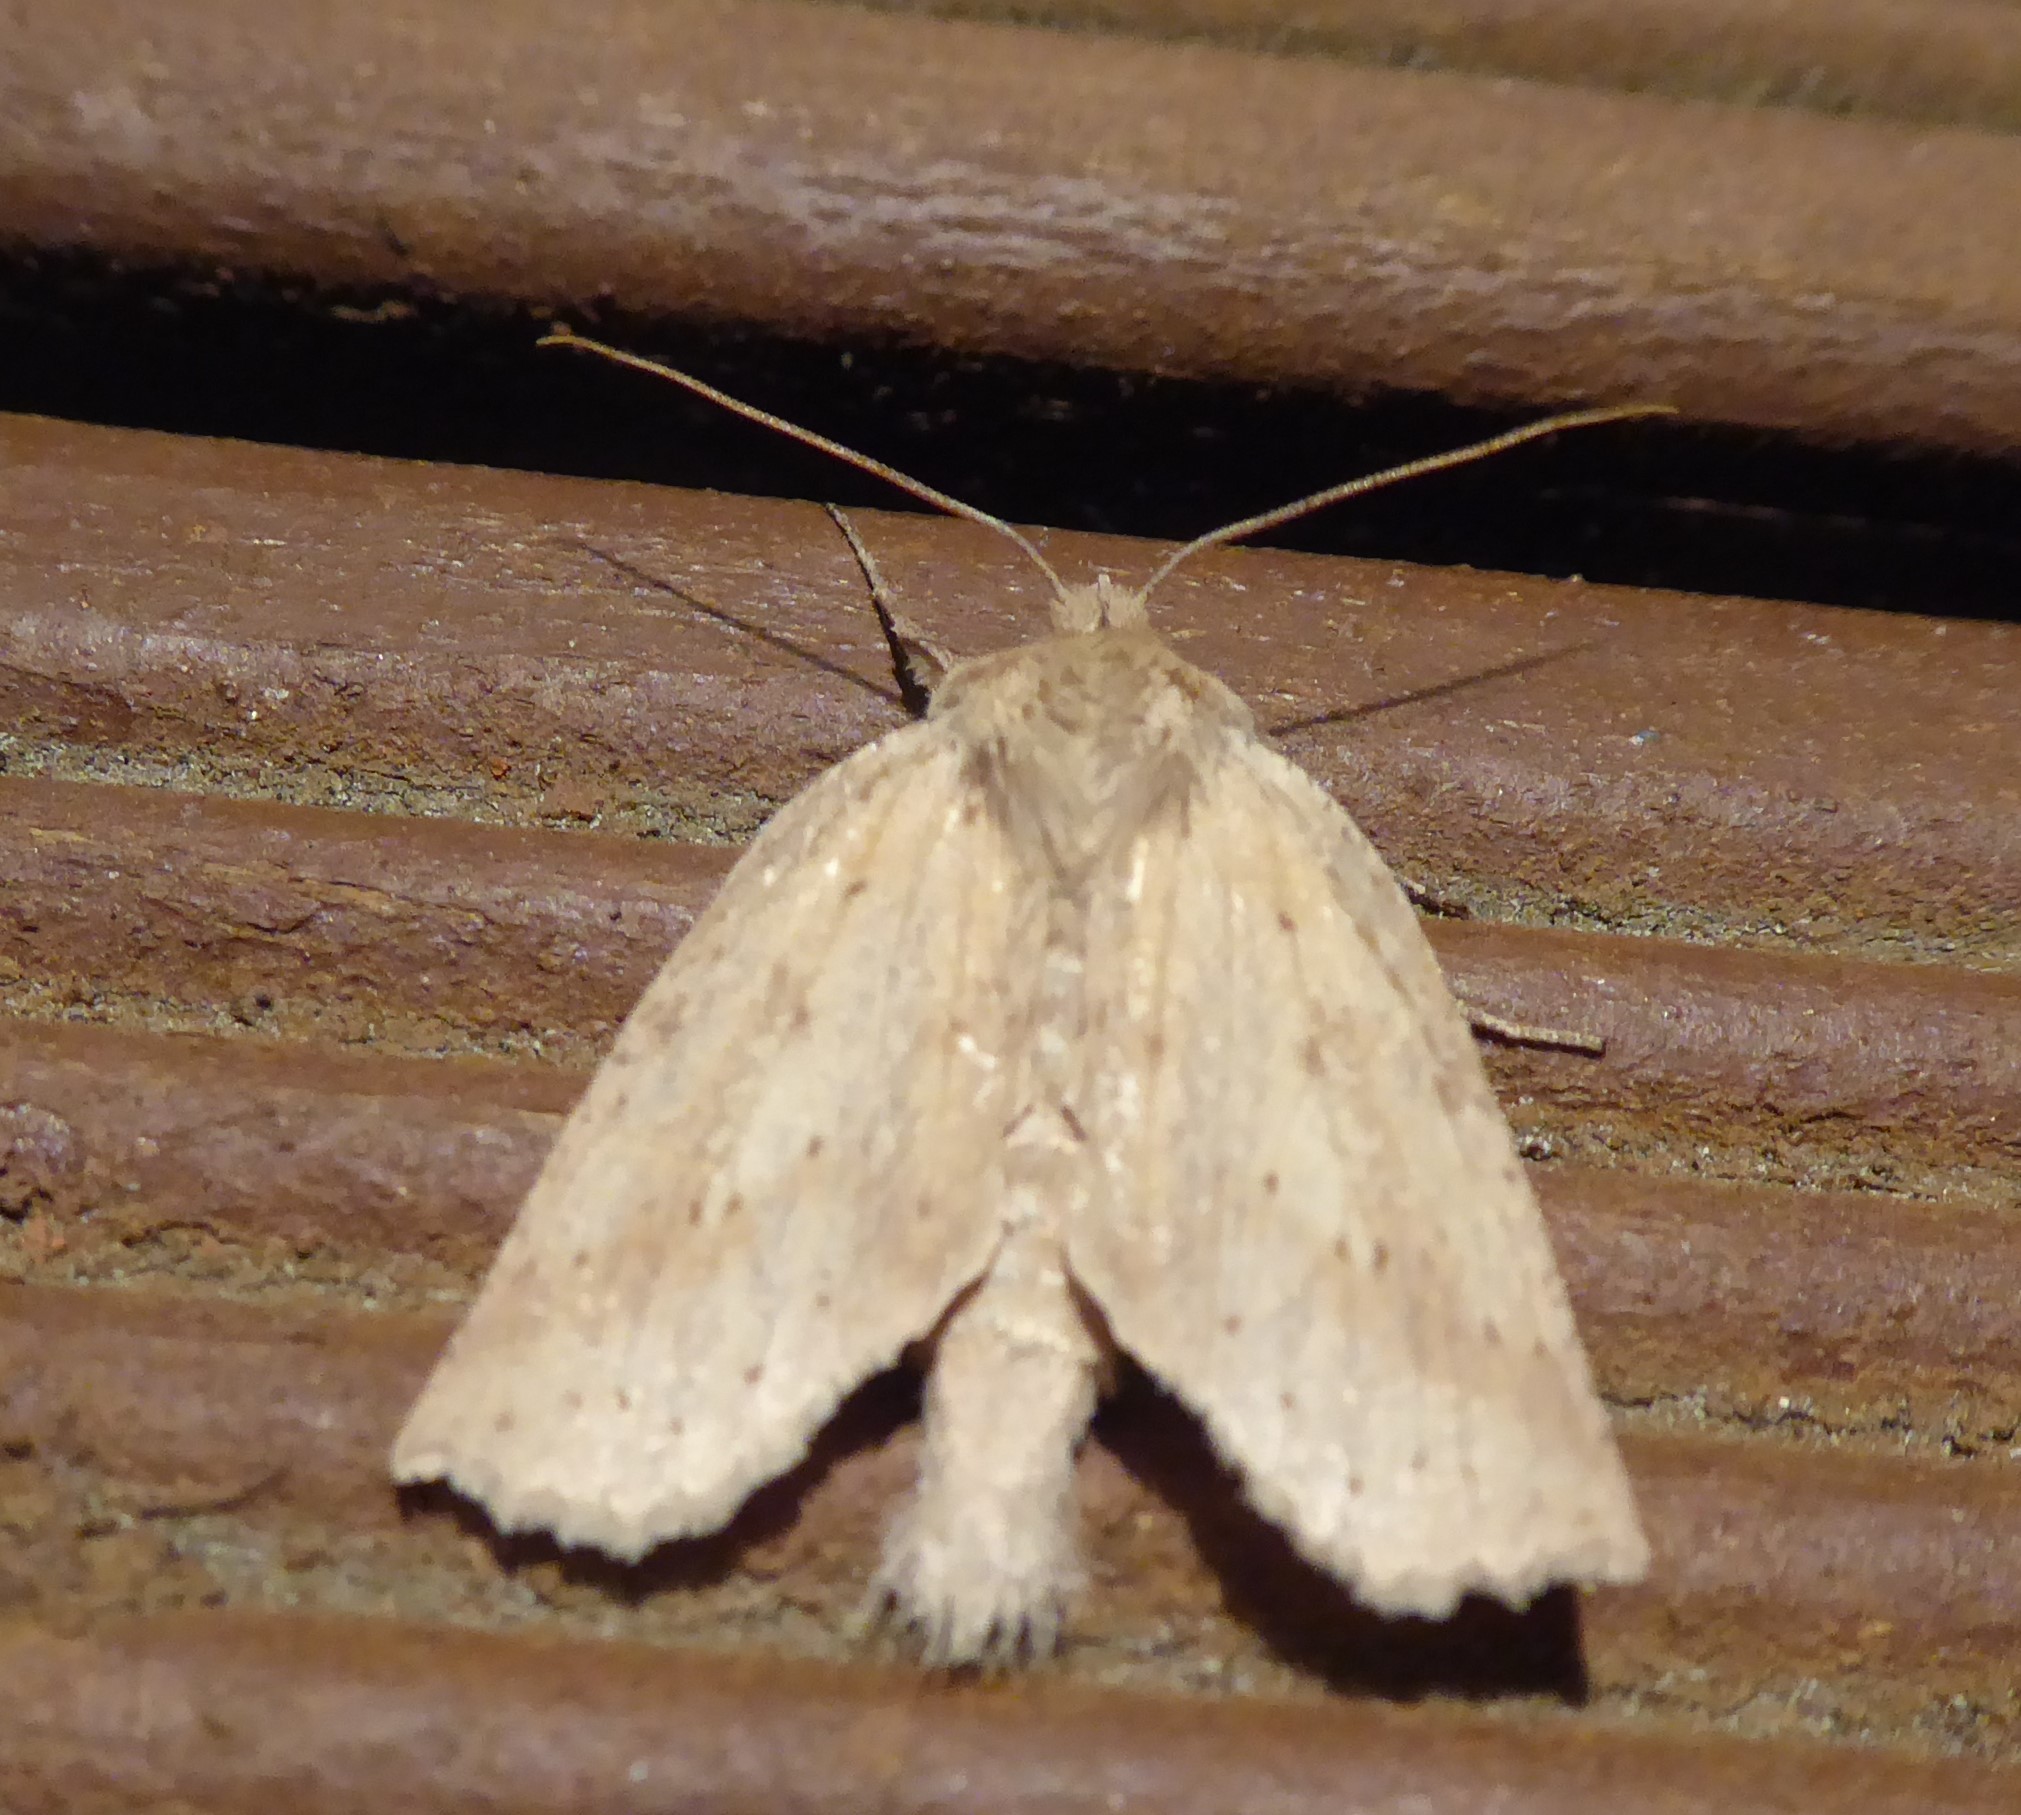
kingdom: Animalia
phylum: Arthropoda
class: Insecta
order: Lepidoptera
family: Geometridae
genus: Declana
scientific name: Declana leptomera
